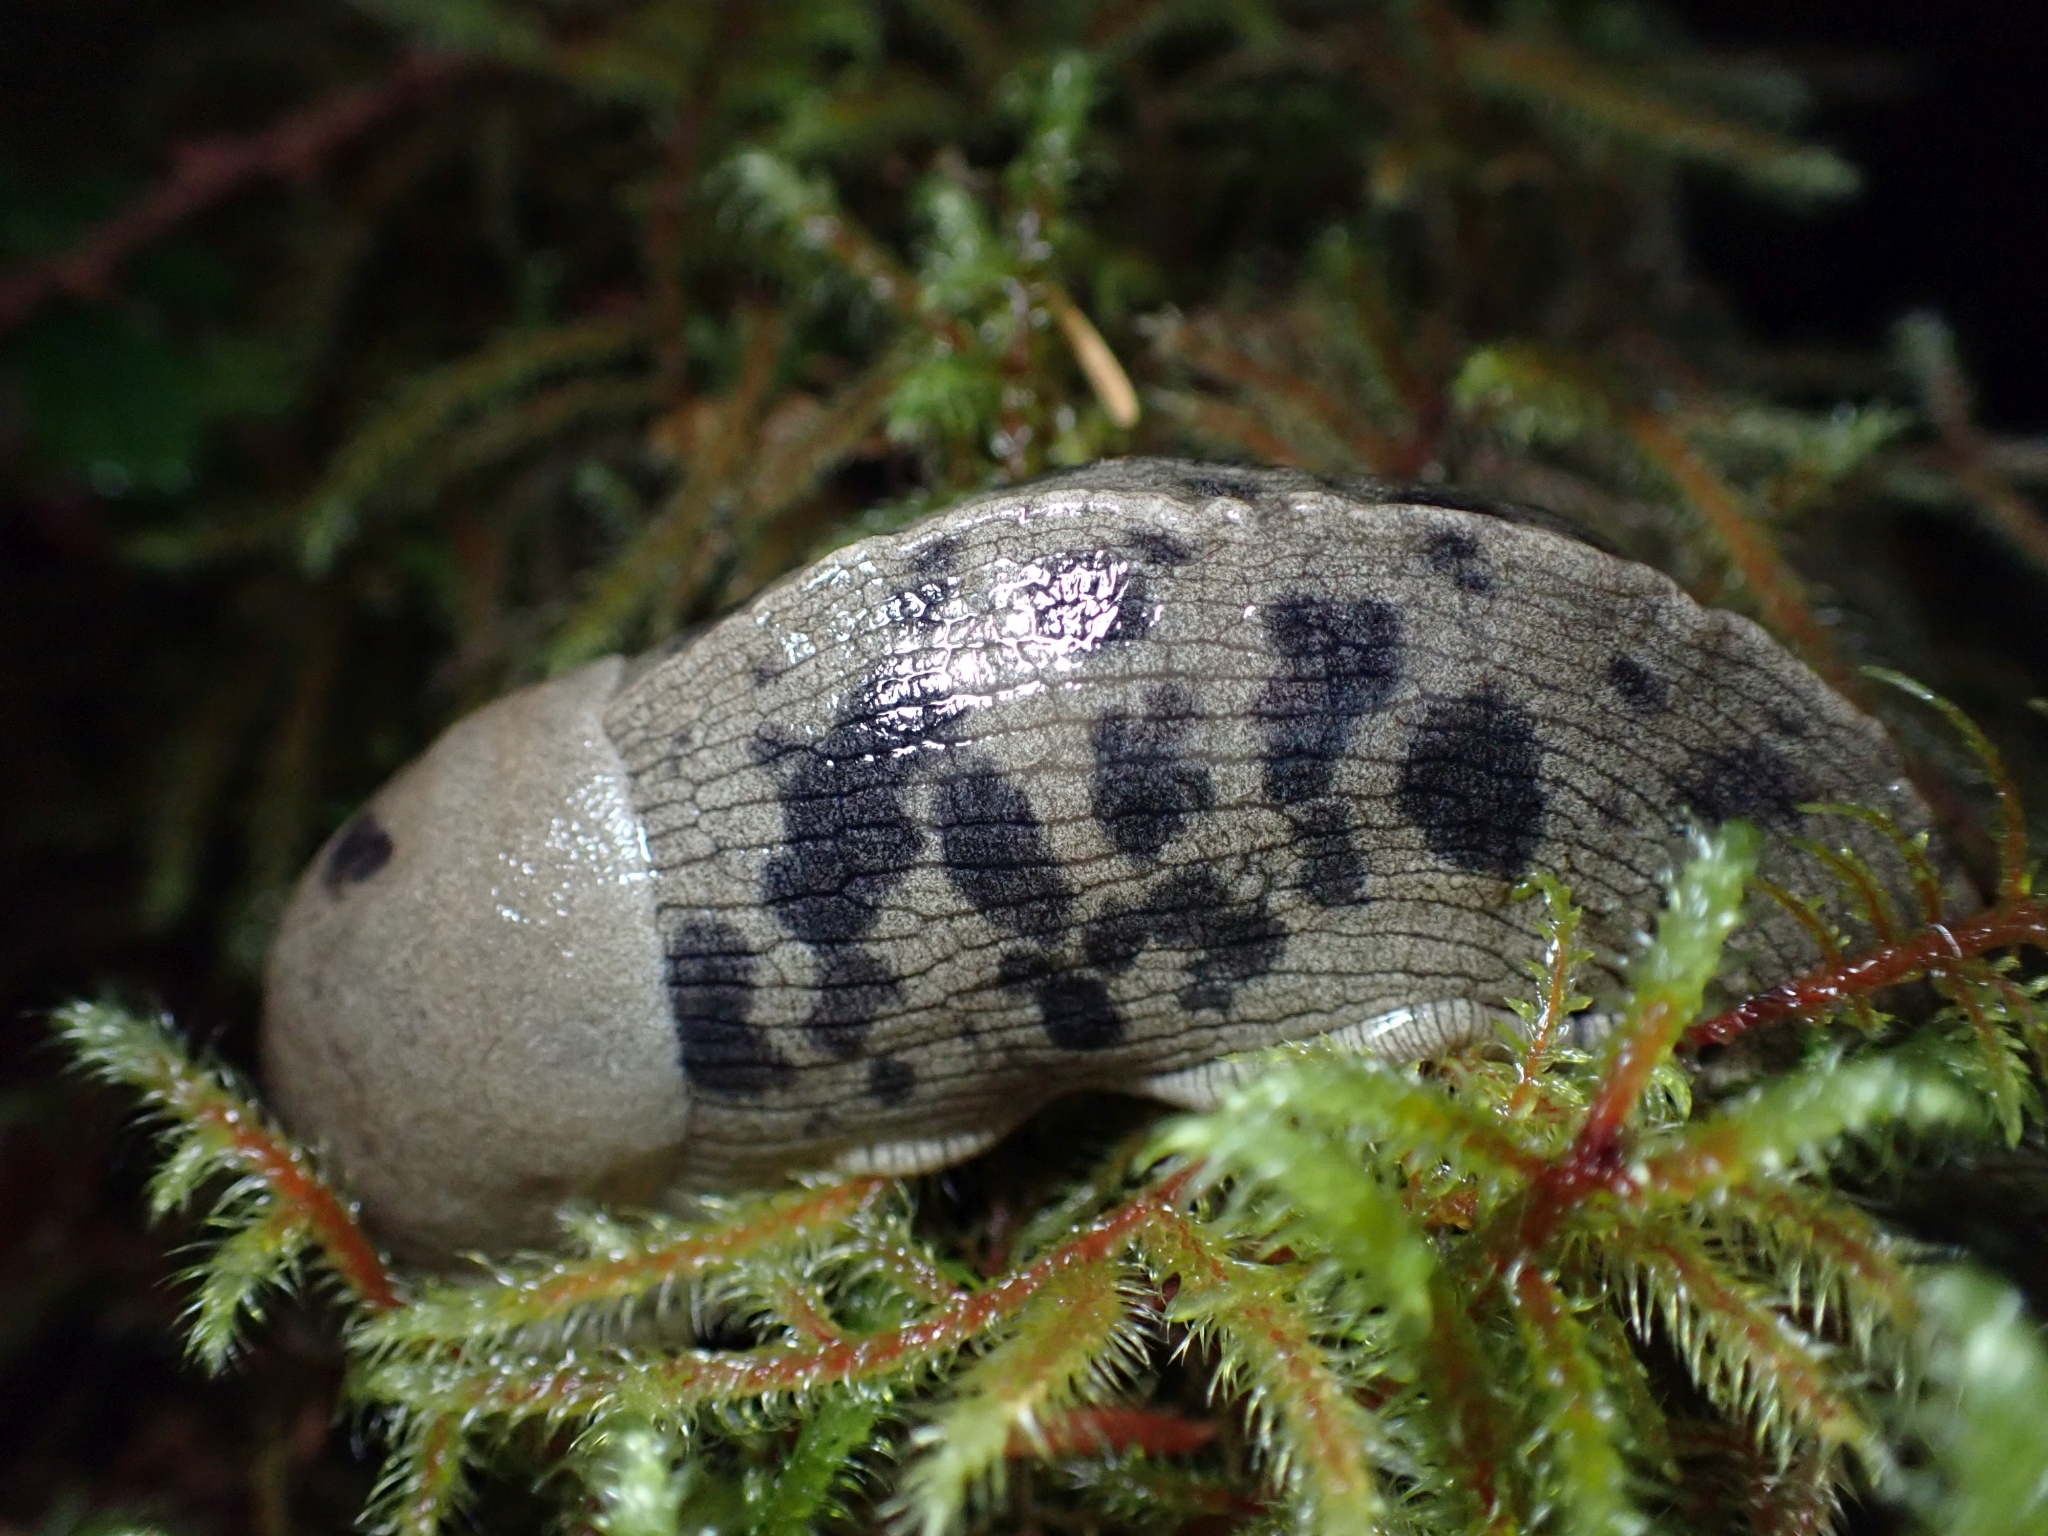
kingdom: Animalia
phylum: Mollusca
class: Gastropoda
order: Stylommatophora
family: Ariolimacidae
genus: Ariolimax
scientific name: Ariolimax columbianus
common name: Pacific banana slug
